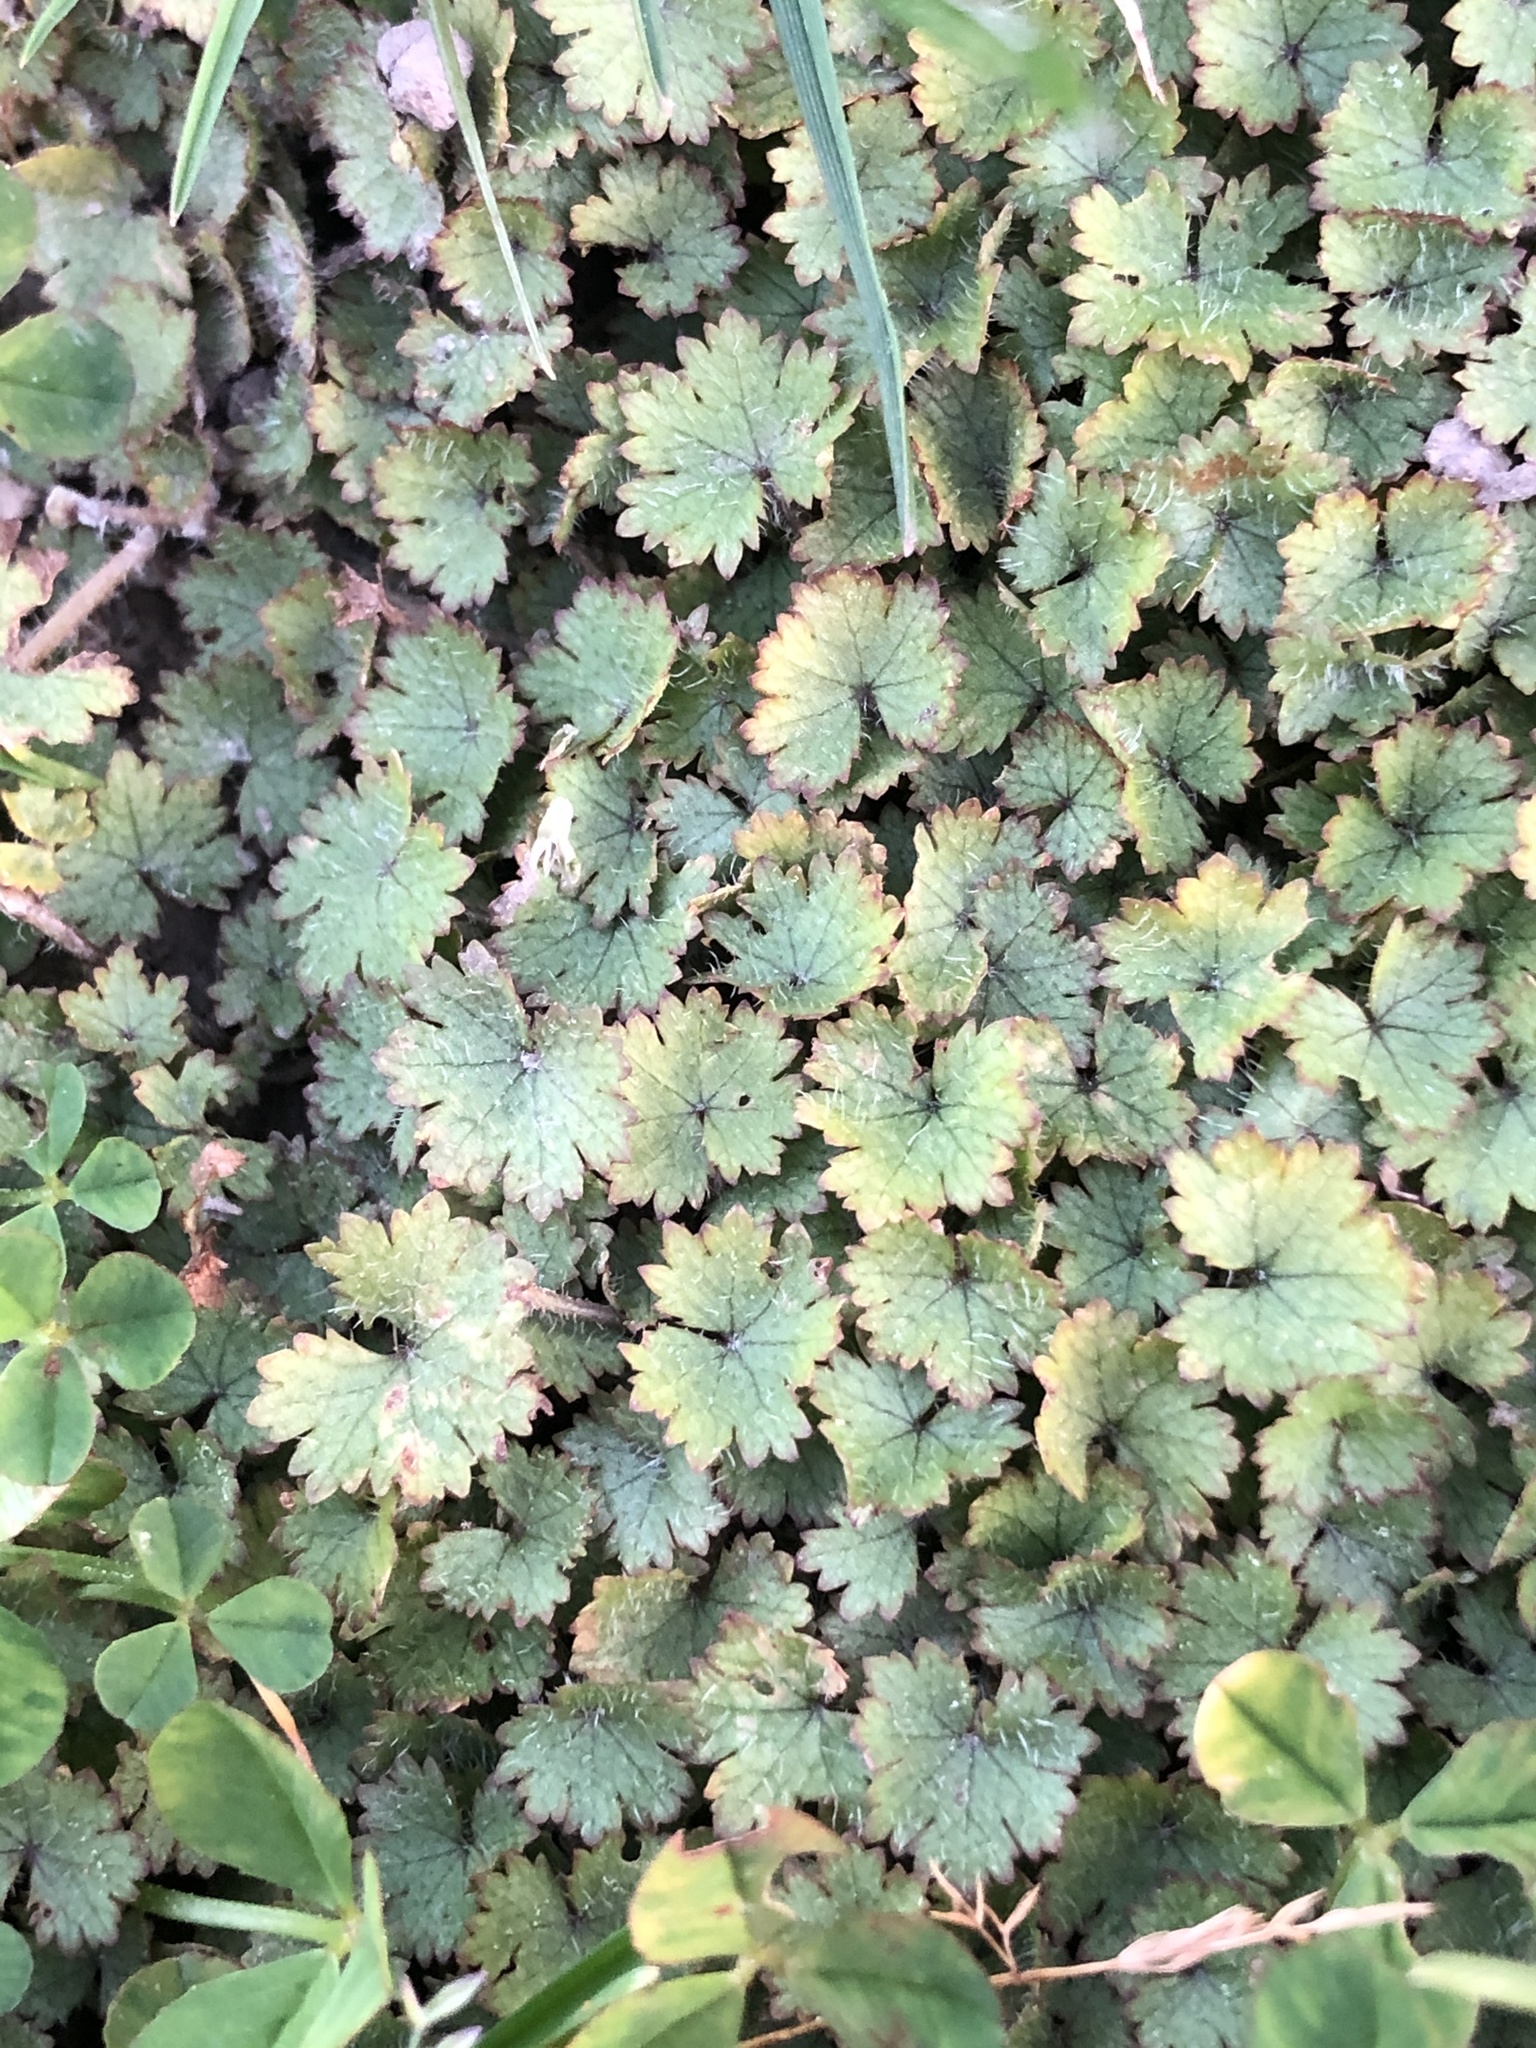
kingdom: Plantae
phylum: Tracheophyta
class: Magnoliopsida
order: Apiales
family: Araliaceae
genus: Hydrocotyle
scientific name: Hydrocotyle moschata
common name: Hairy pennywort
